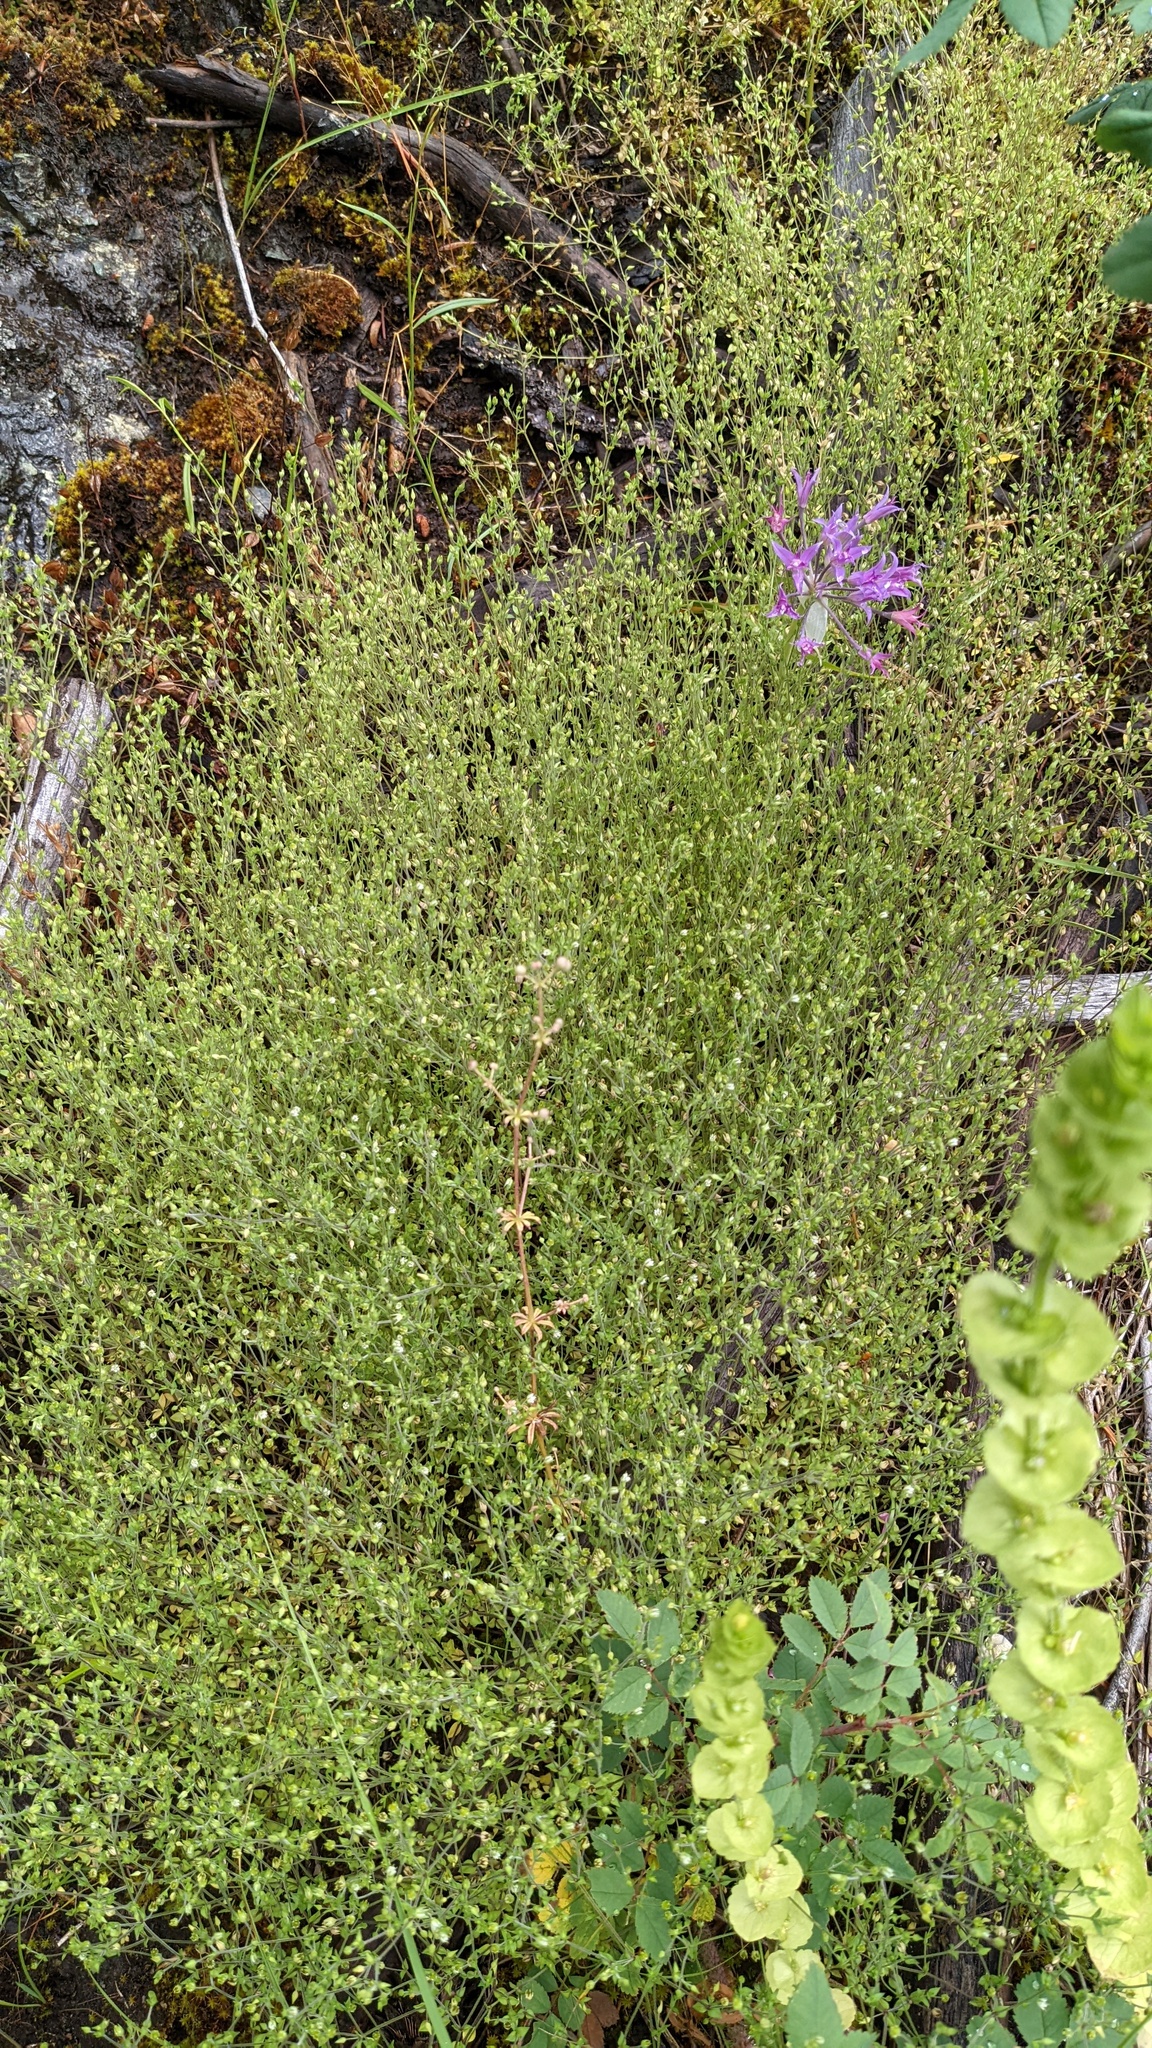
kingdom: Plantae
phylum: Tracheophyta
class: Magnoliopsida
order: Caryophyllales
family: Caryophyllaceae
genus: Arenaria
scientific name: Arenaria serpyllifolia
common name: Thyme-leaved sandwort
